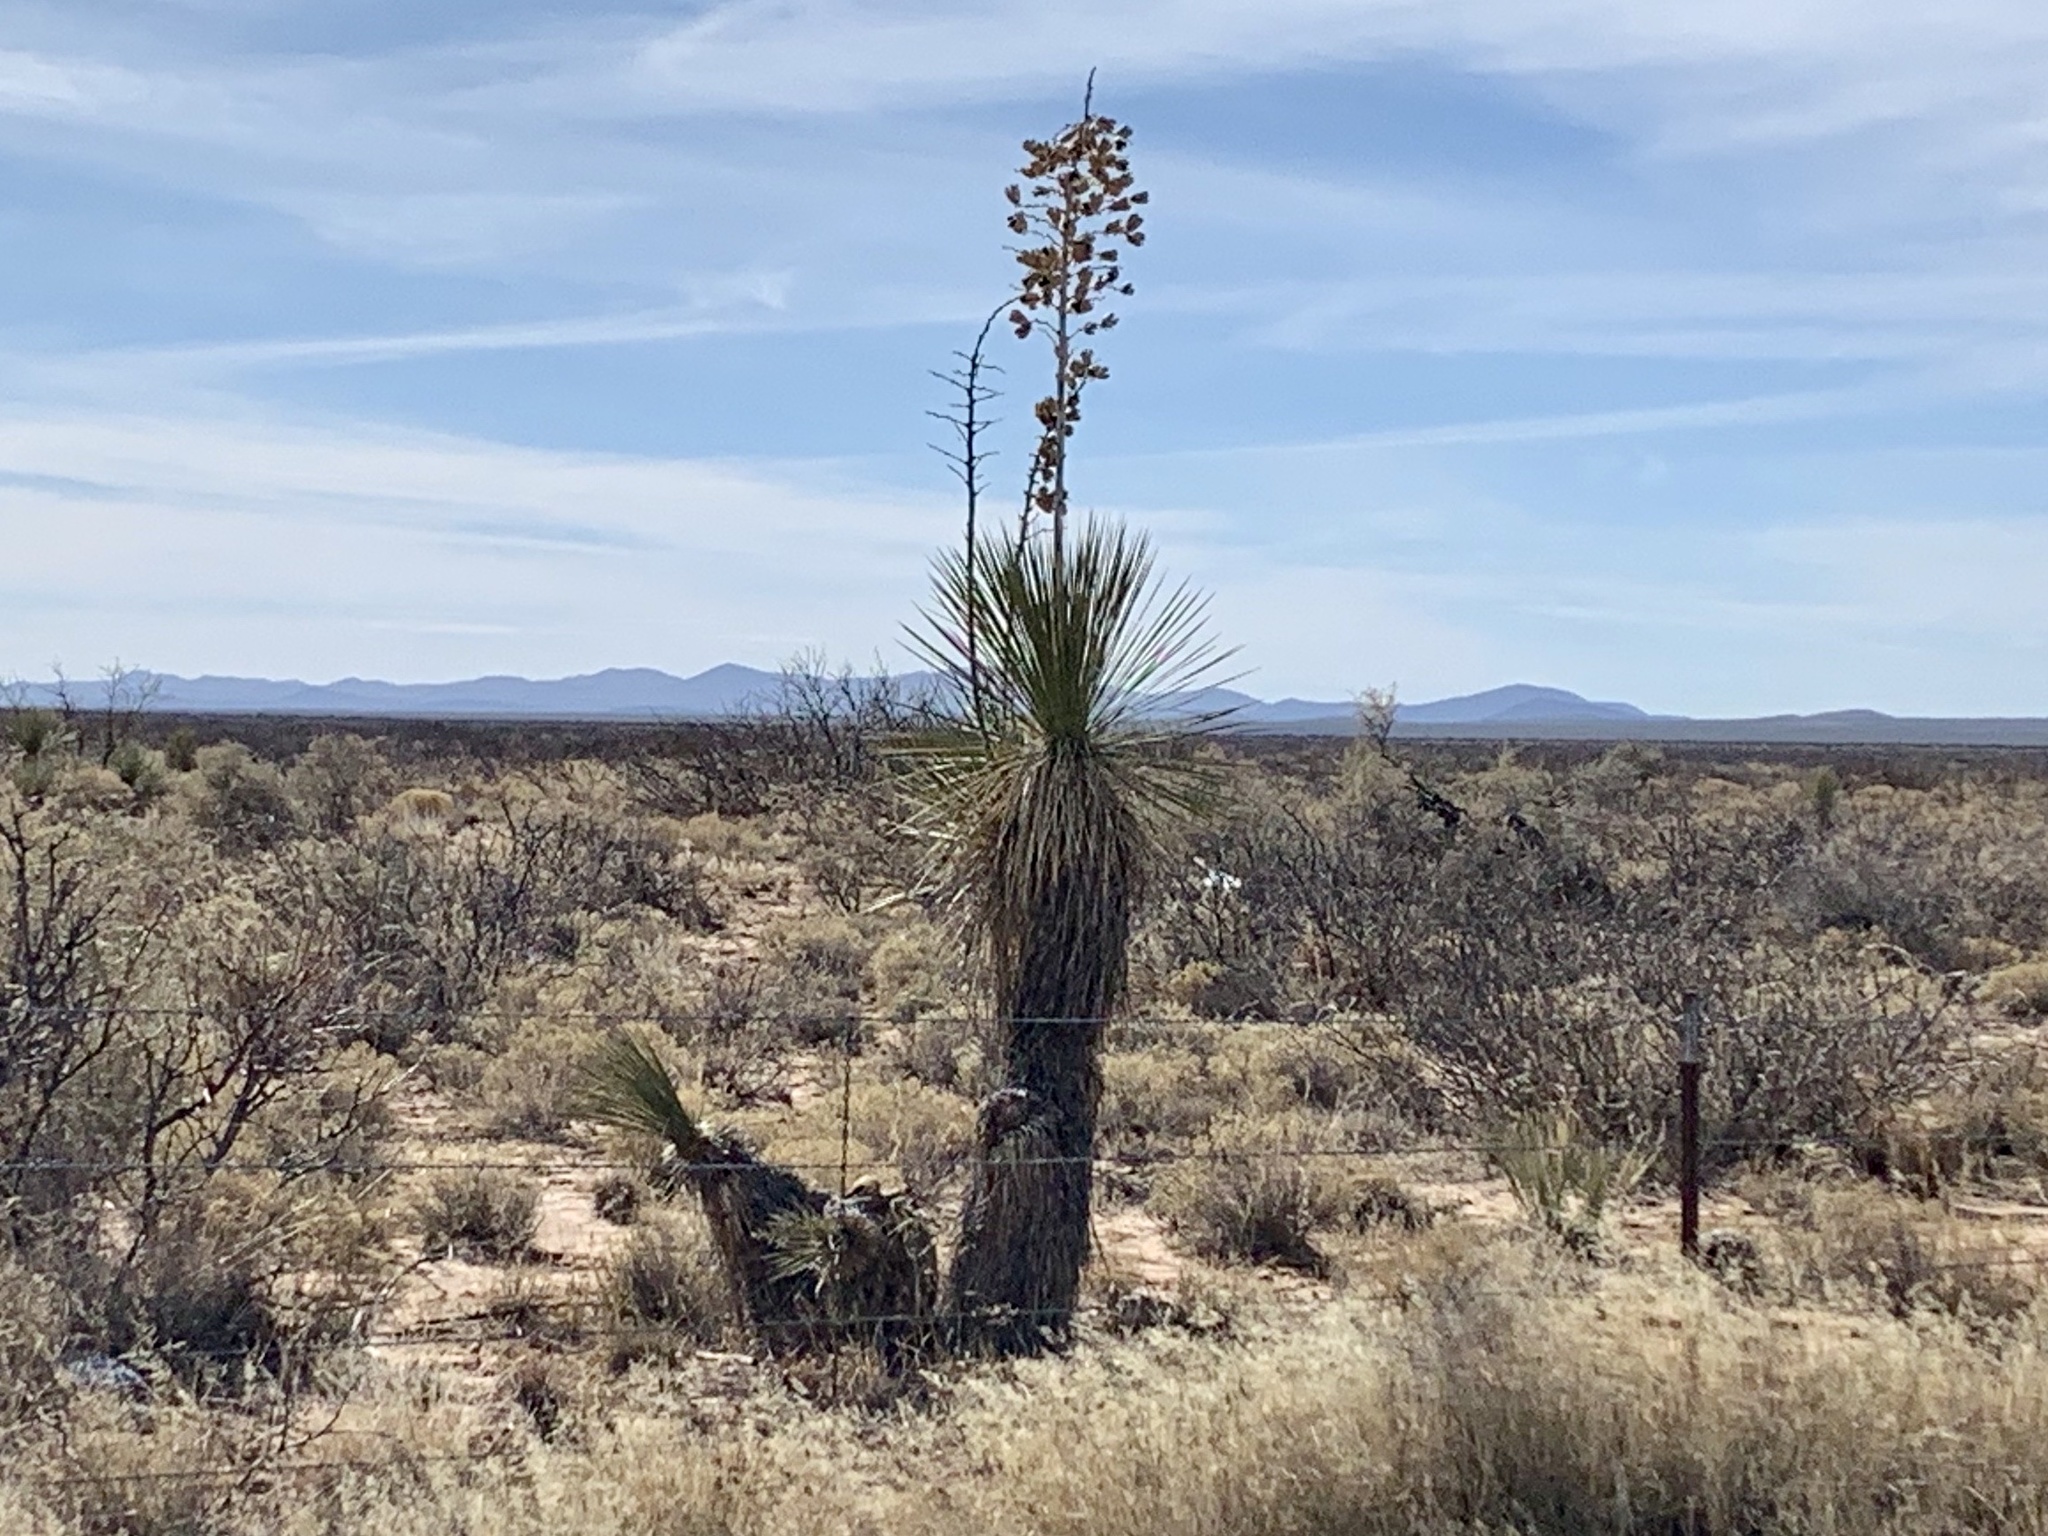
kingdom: Plantae
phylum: Tracheophyta
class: Liliopsida
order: Asparagales
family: Asparagaceae
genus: Yucca
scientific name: Yucca elata
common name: Palmella
